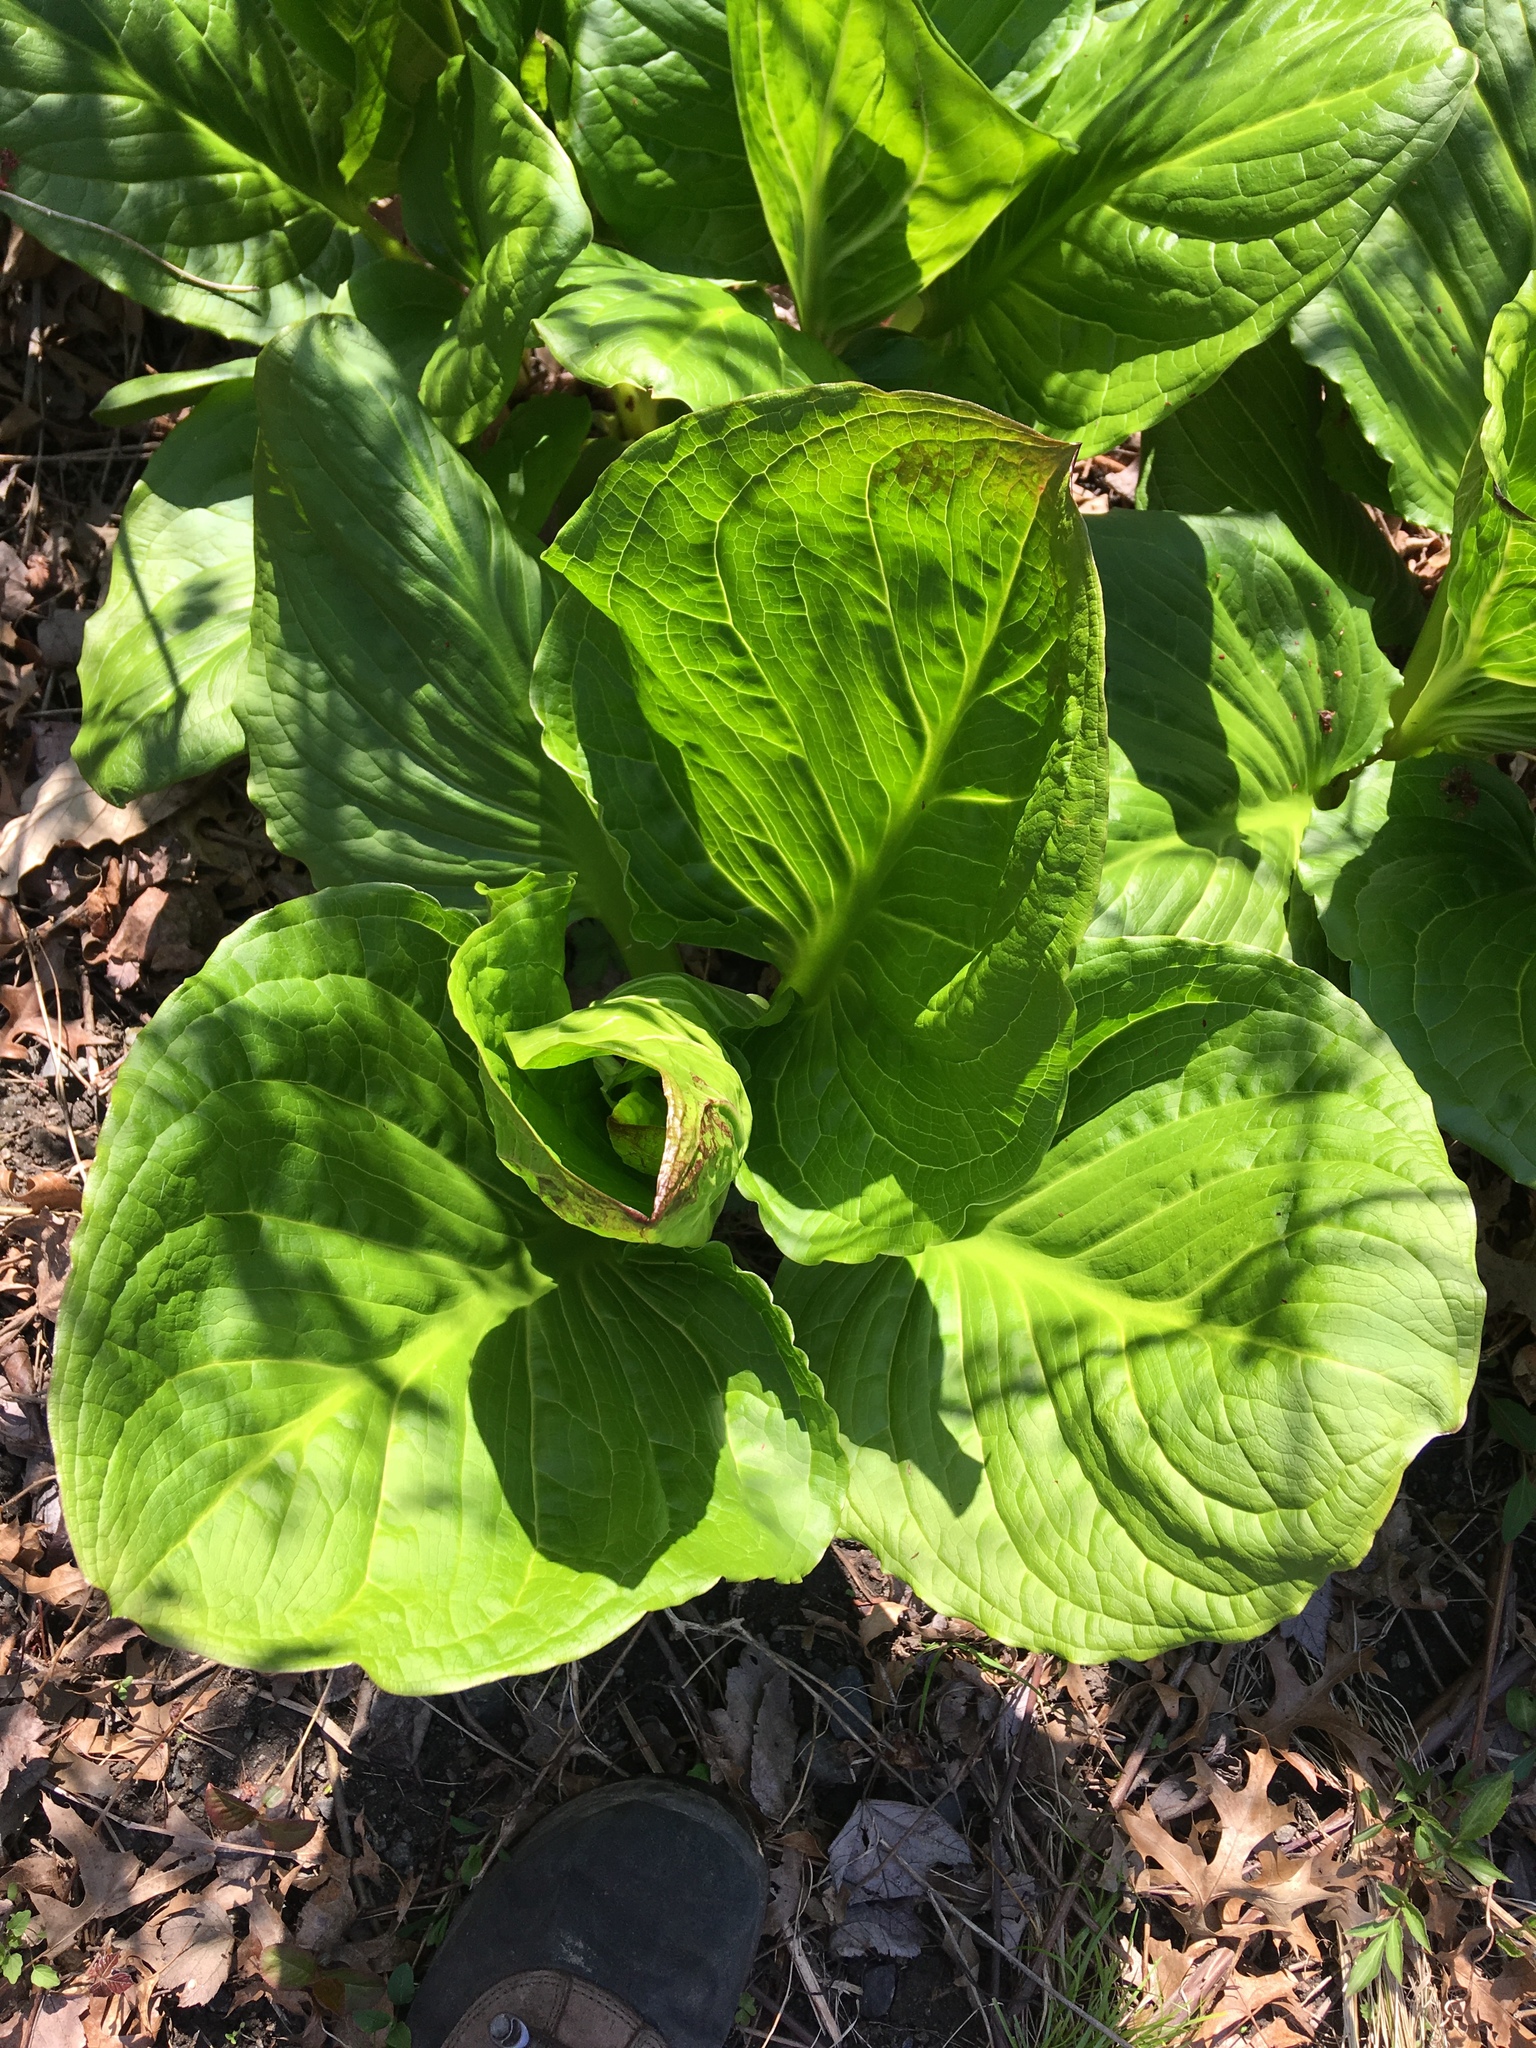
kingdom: Plantae
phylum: Tracheophyta
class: Liliopsida
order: Alismatales
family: Araceae
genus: Symplocarpus
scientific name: Symplocarpus foetidus
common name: Eastern skunk cabbage
